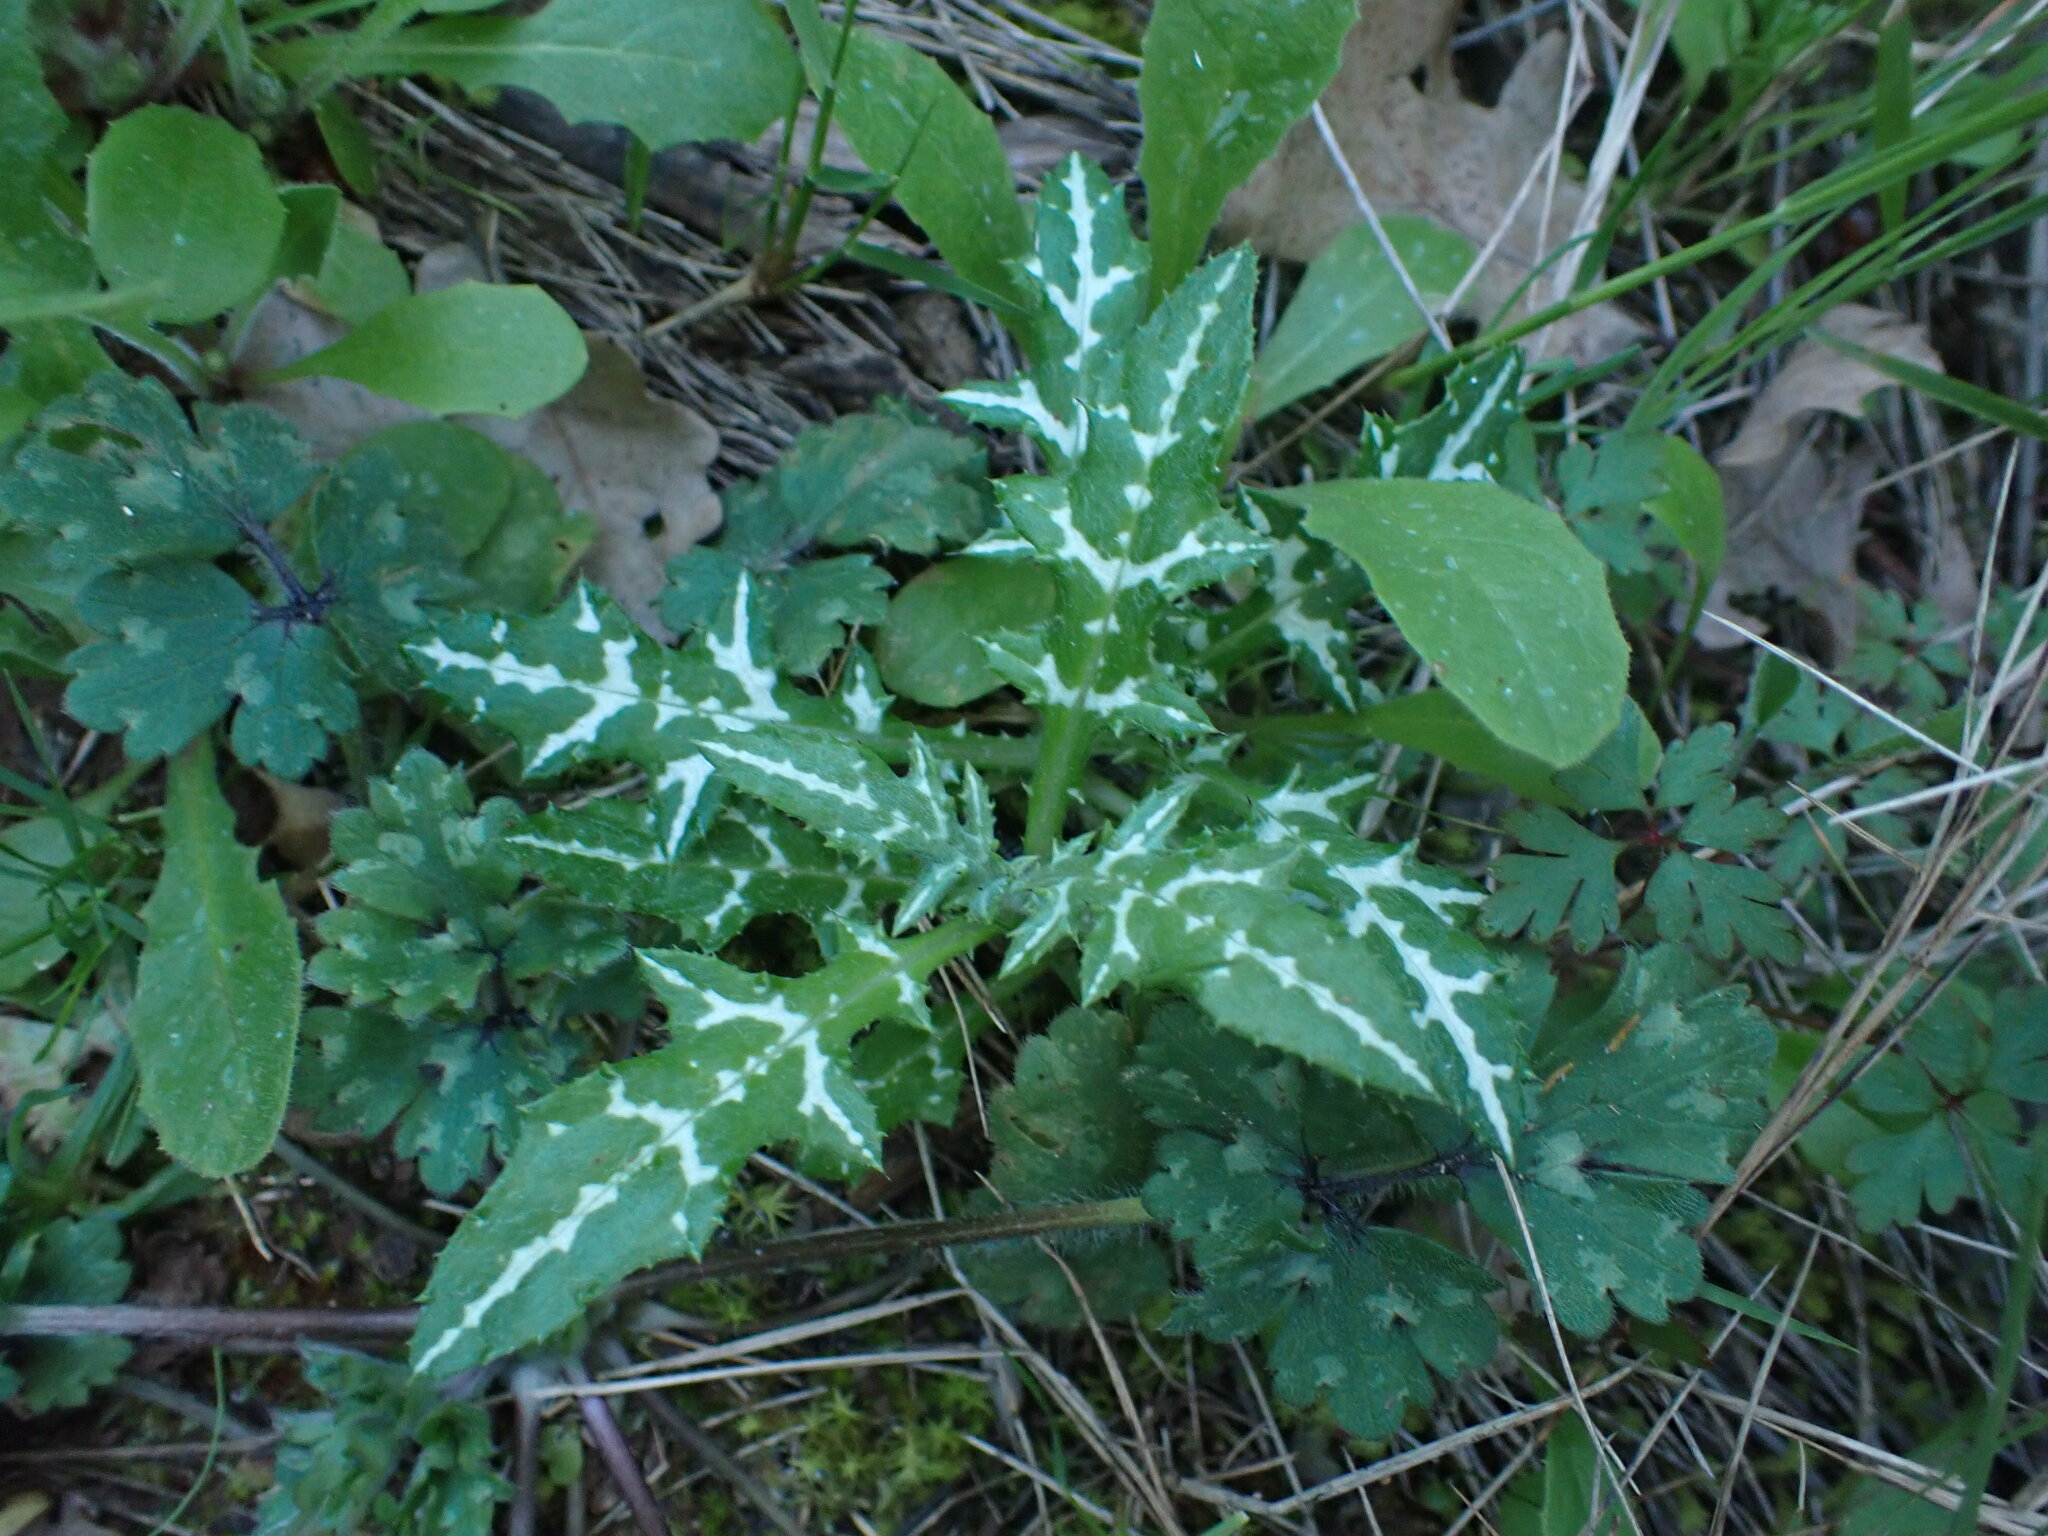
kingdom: Plantae
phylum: Tracheophyta
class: Magnoliopsida
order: Asterales
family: Asteraceae
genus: Galactites
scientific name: Galactites tomentosa
